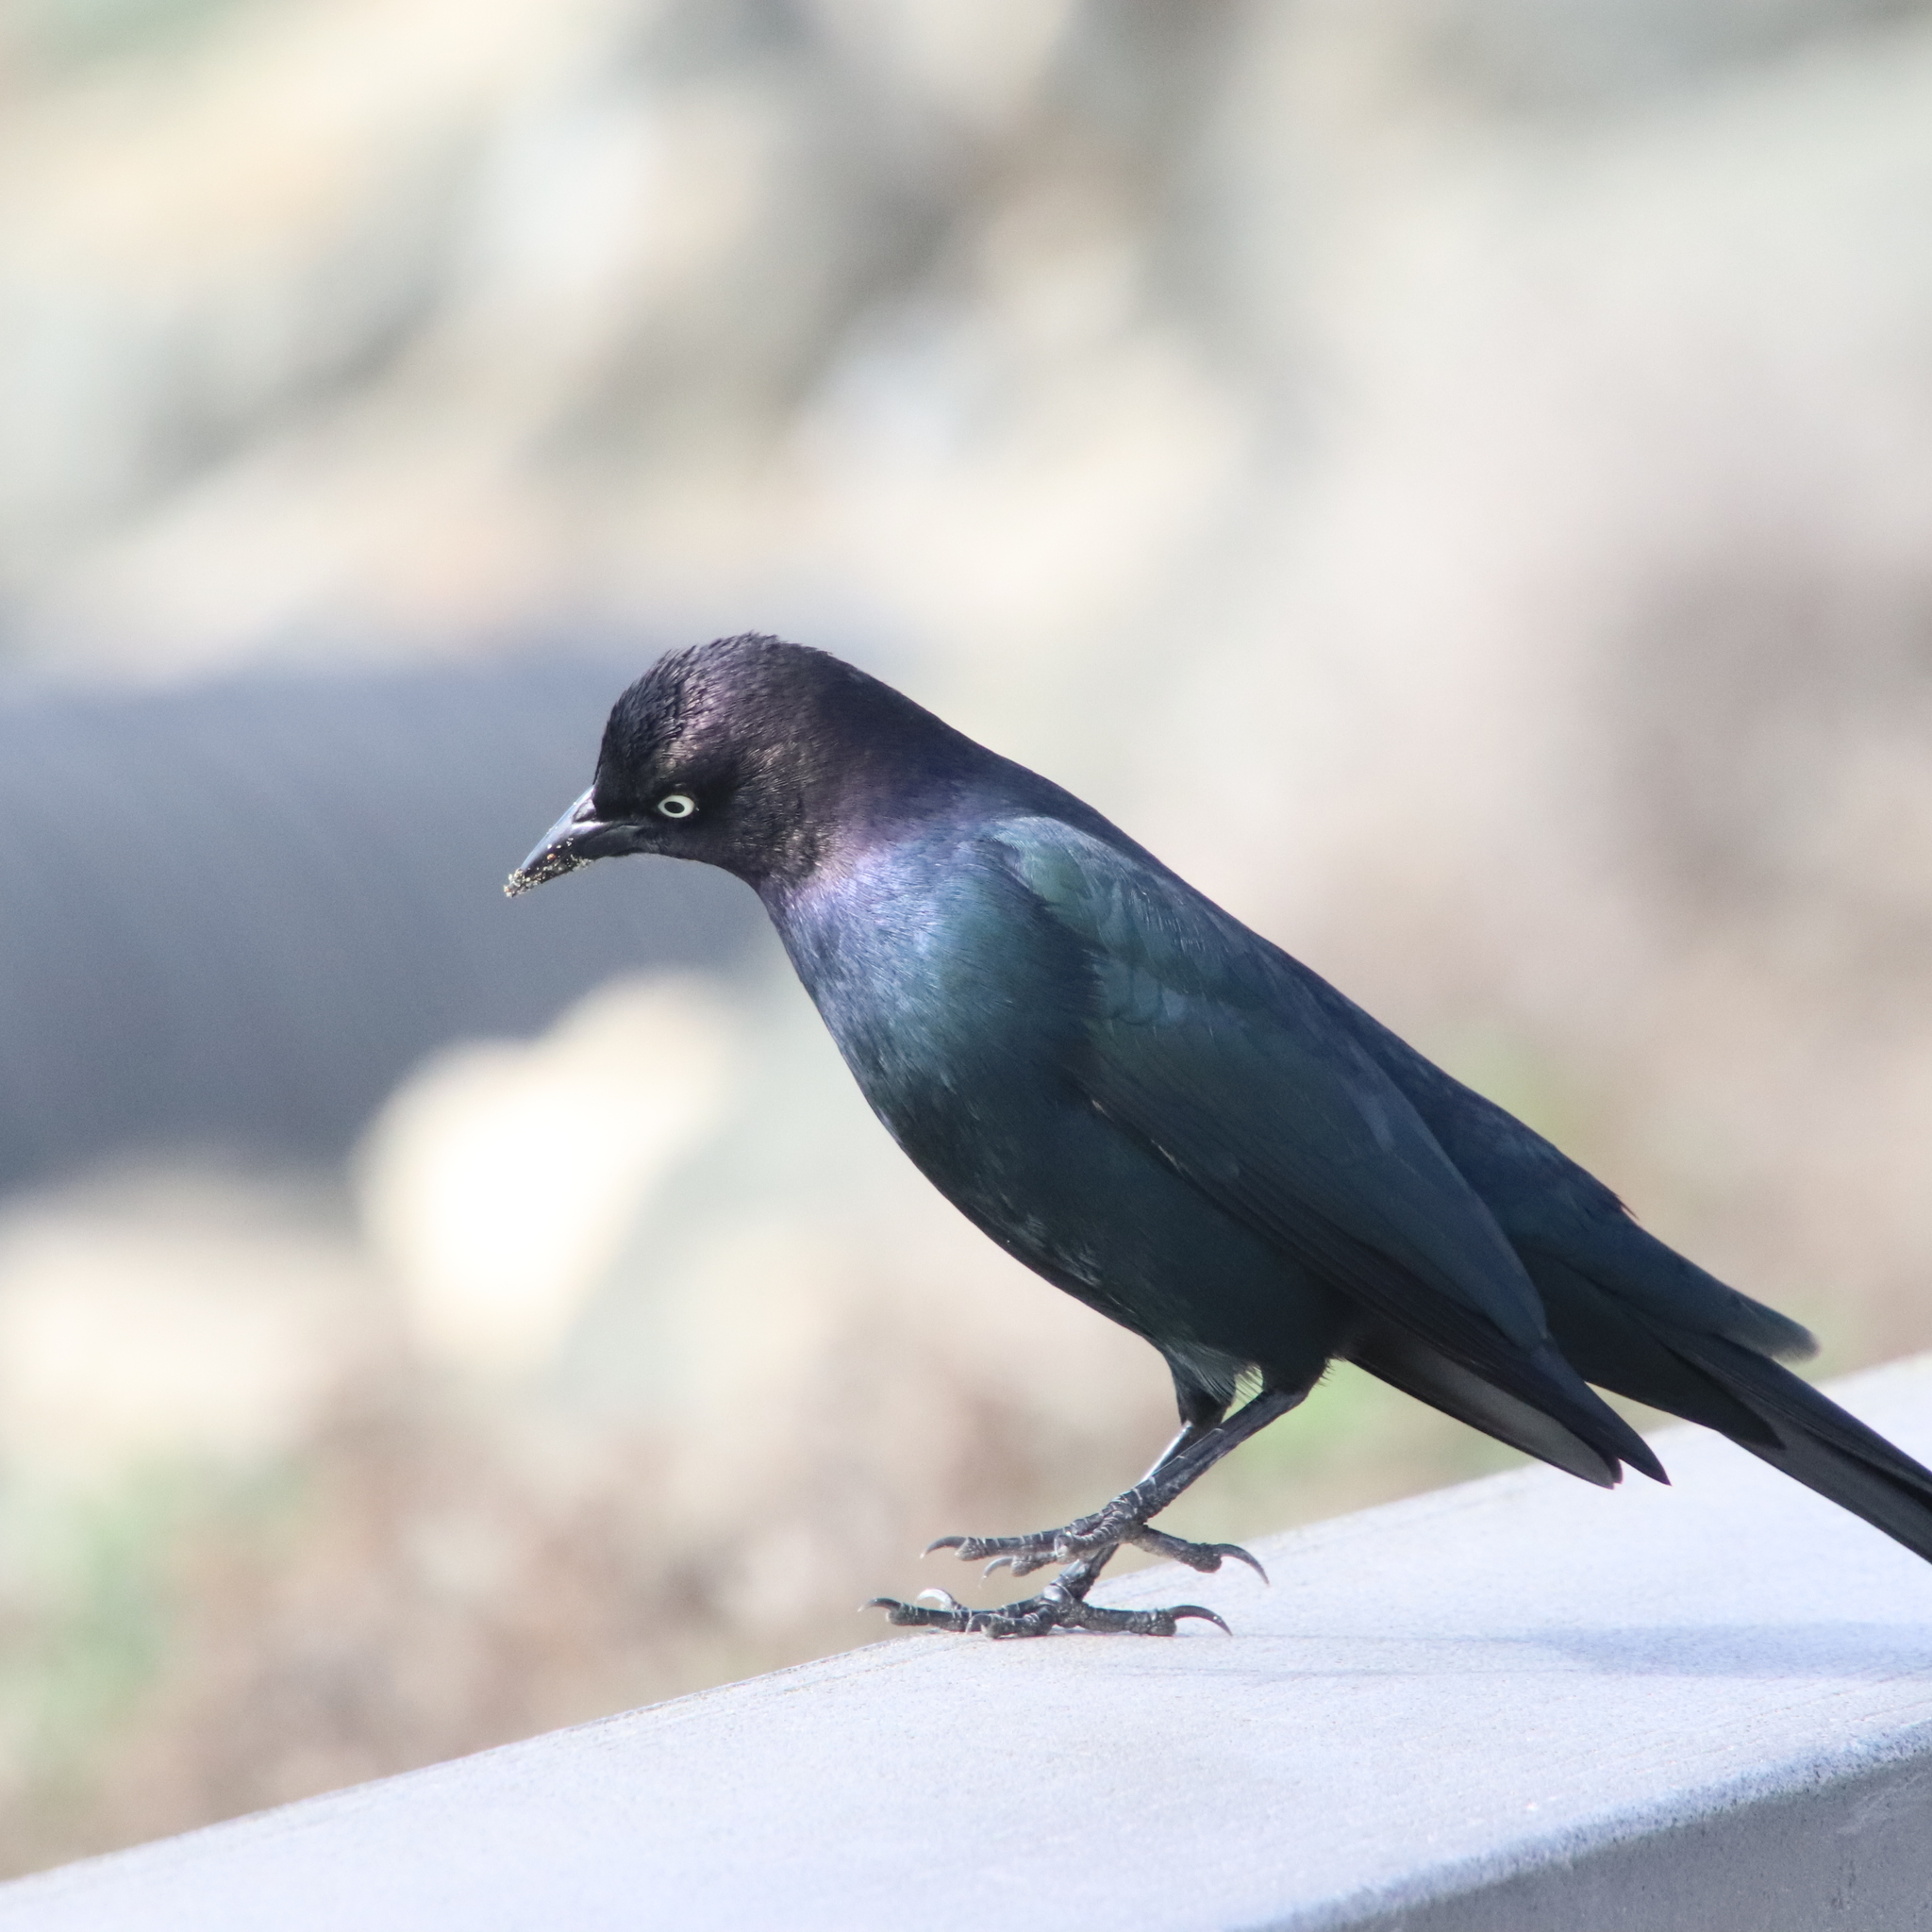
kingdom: Animalia
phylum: Chordata
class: Aves
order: Passeriformes
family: Icteridae
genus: Euphagus
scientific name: Euphagus cyanocephalus
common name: Brewer's blackbird
